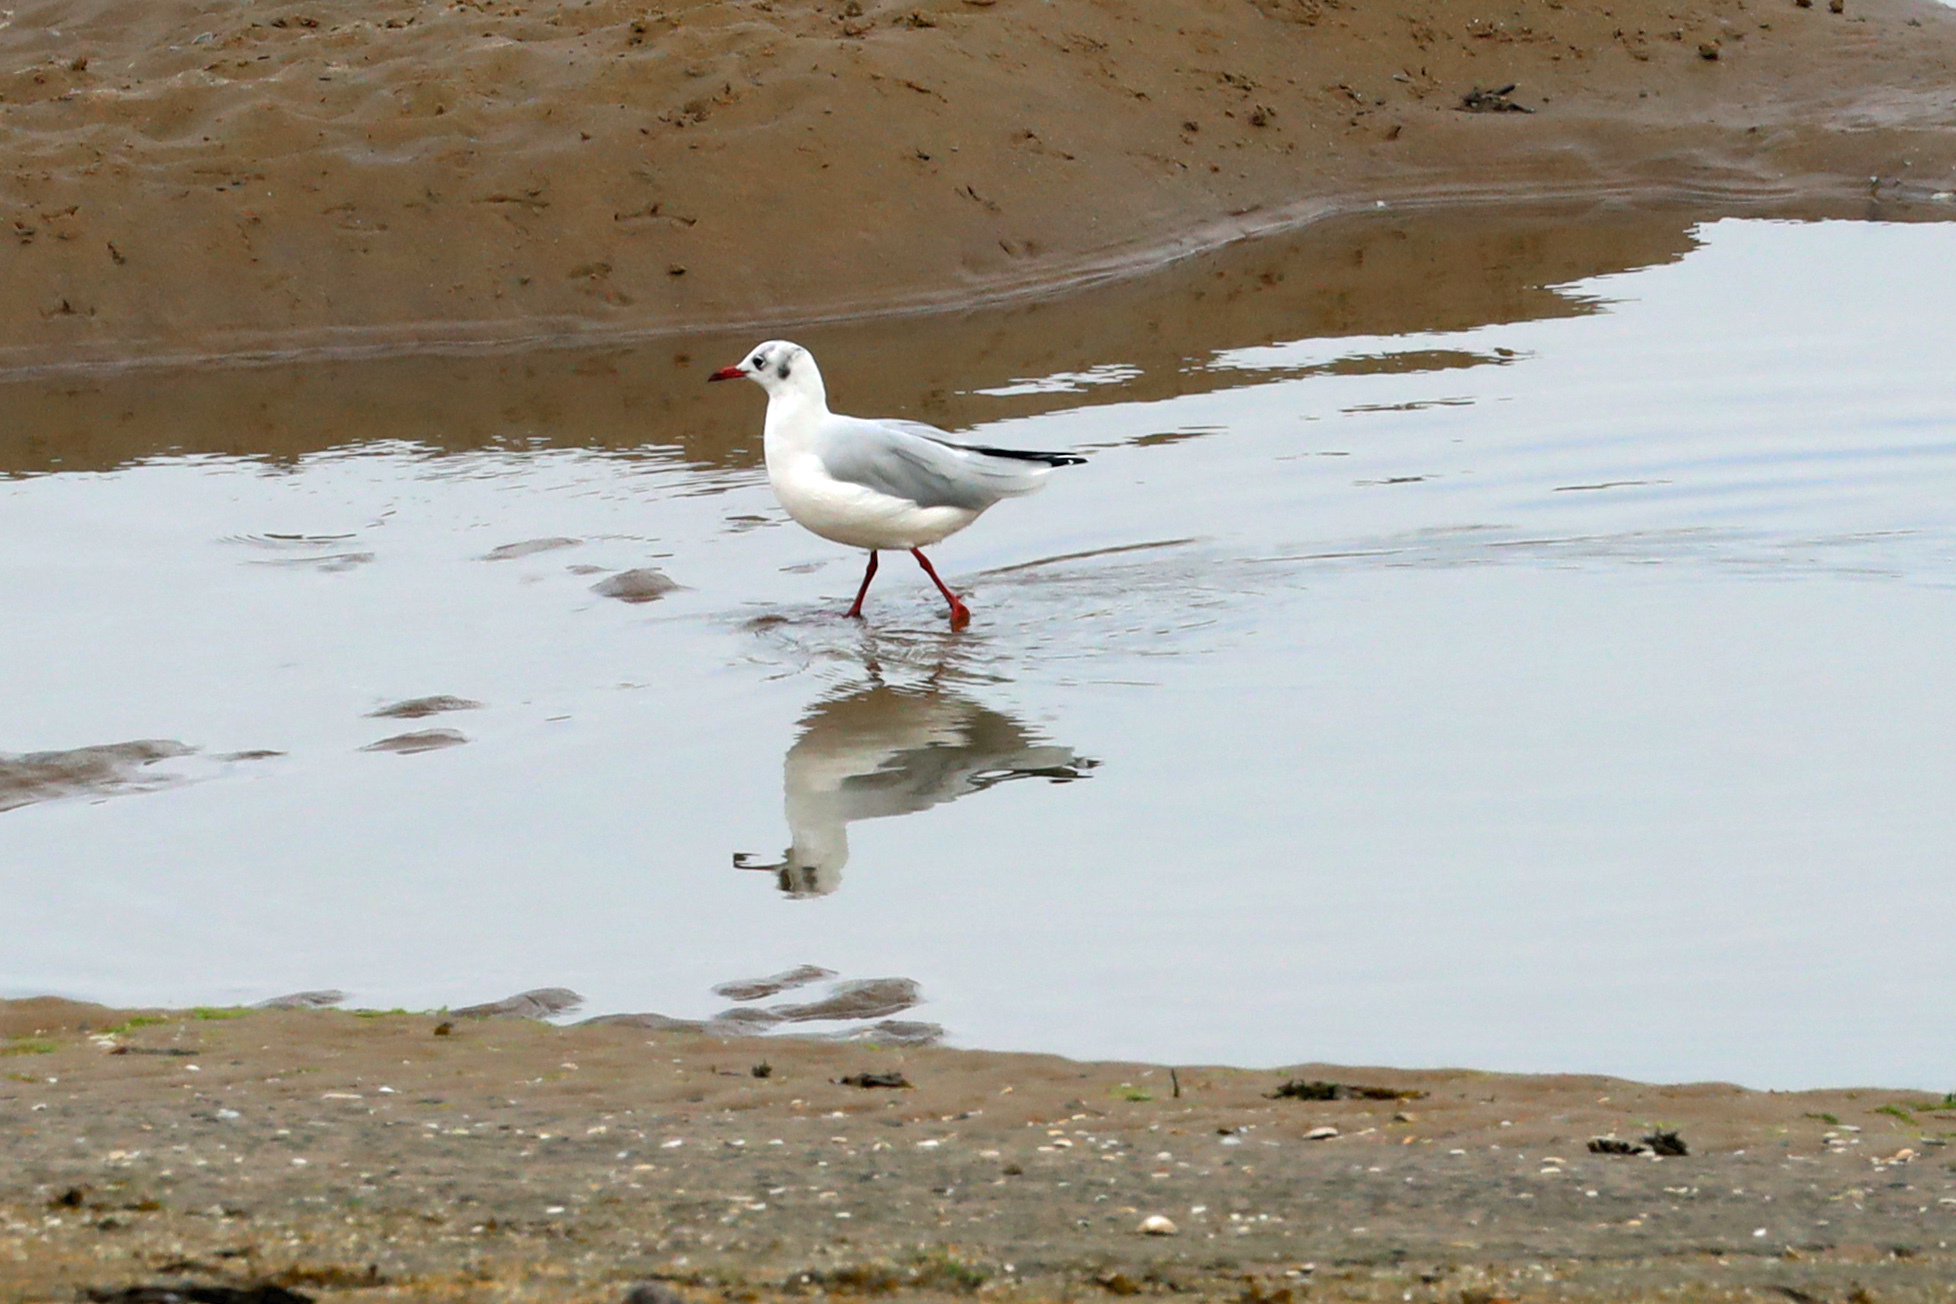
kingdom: Animalia
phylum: Chordata
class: Aves
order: Charadriiformes
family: Laridae
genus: Chroicocephalus
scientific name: Chroicocephalus ridibundus
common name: Black-headed gull
